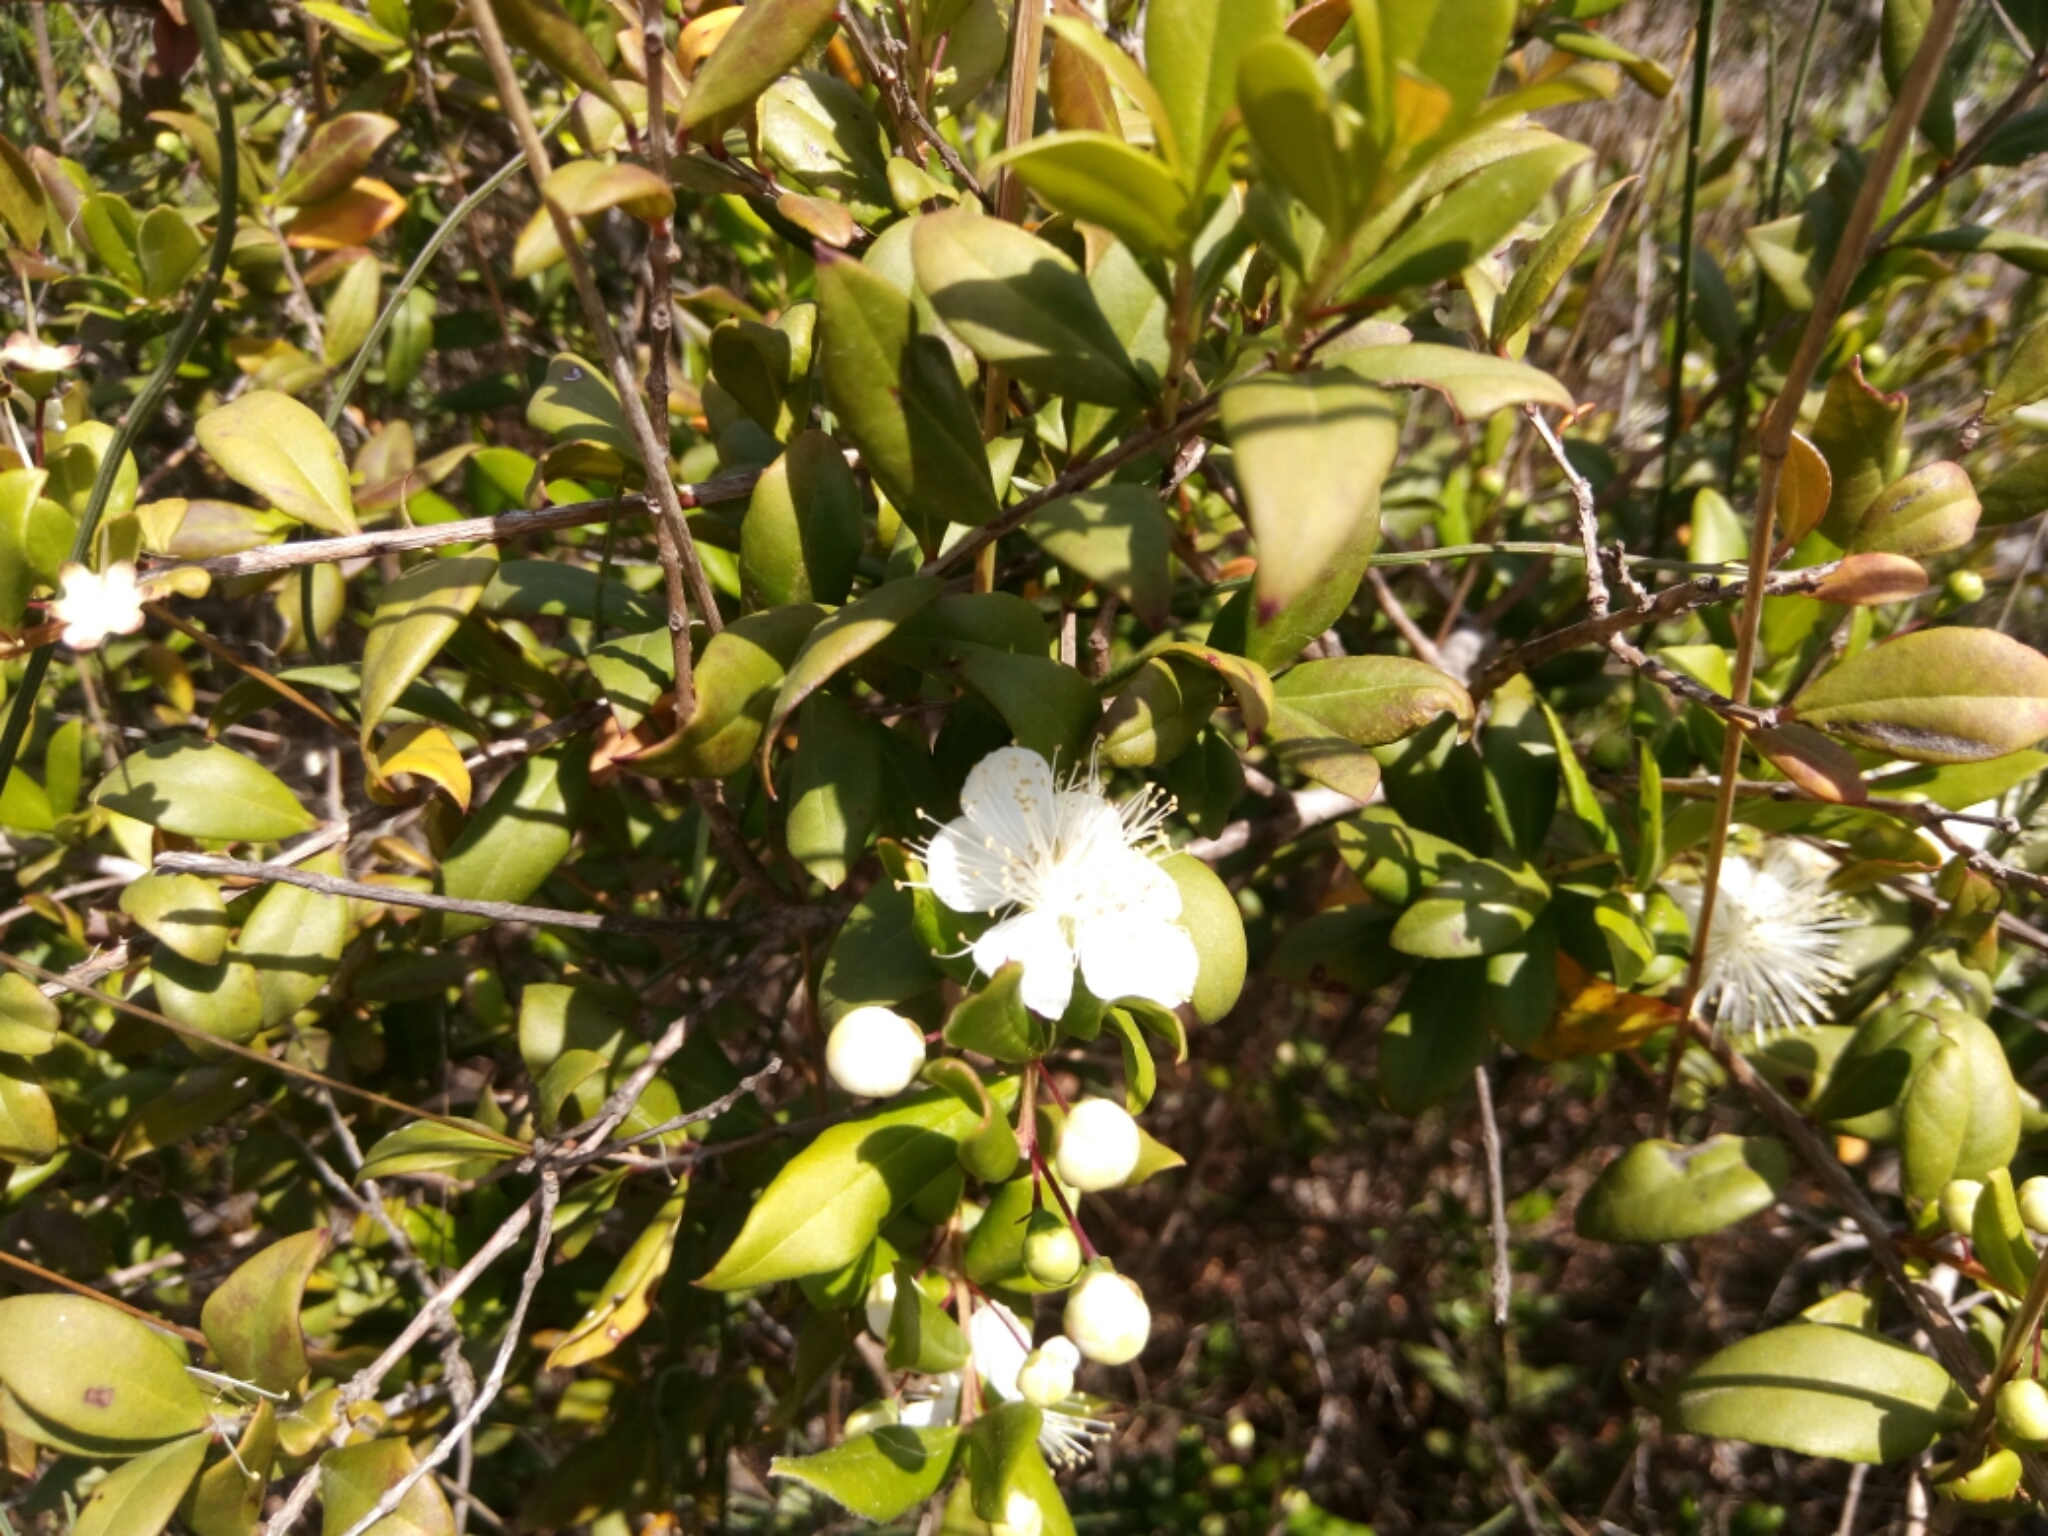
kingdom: Plantae
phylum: Tracheophyta
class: Magnoliopsida
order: Myrtales
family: Myrtaceae
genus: Myrtus
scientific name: Myrtus communis
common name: Myrtle
